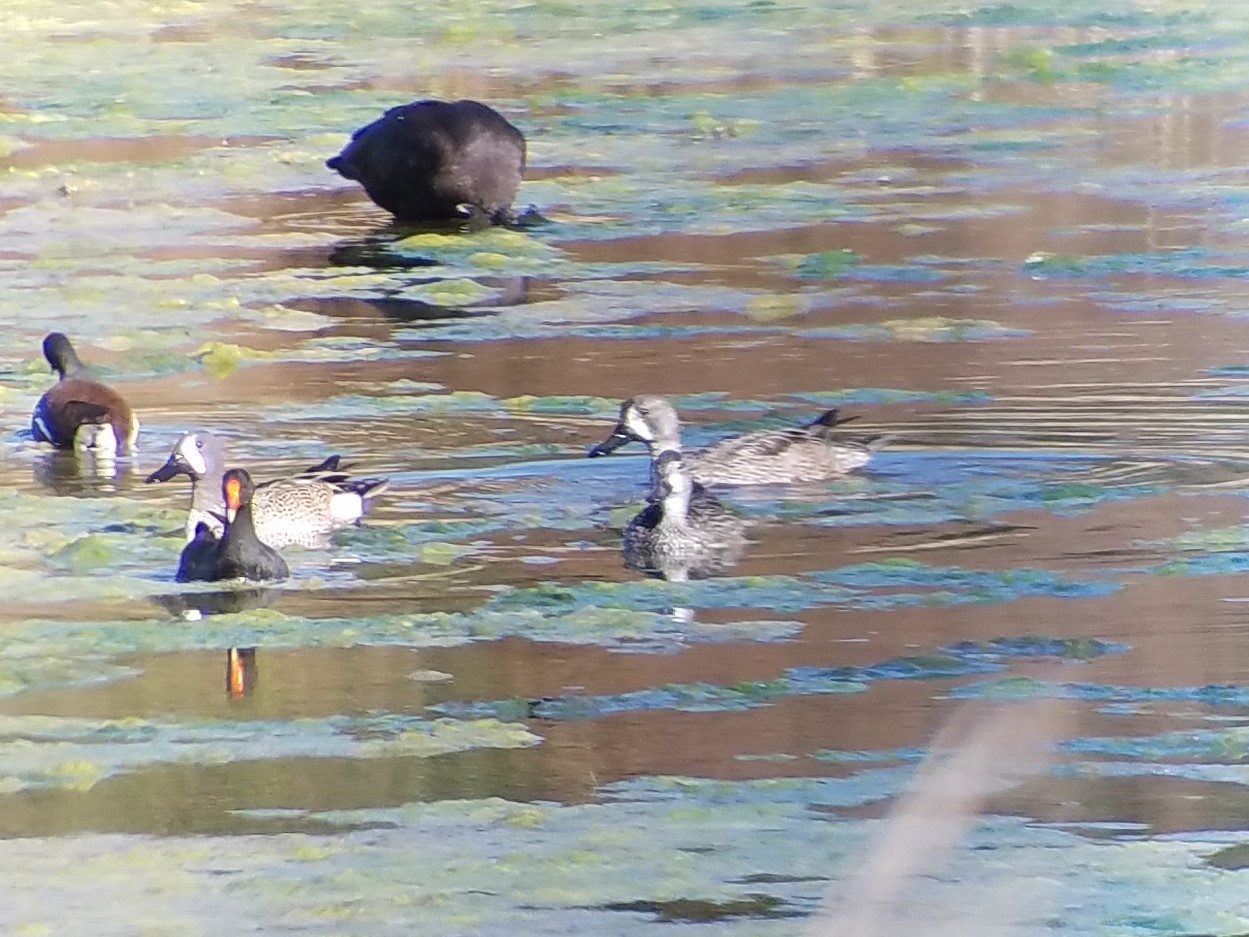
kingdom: Animalia
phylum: Chordata
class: Aves
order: Anseriformes
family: Anatidae
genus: Spatula
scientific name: Spatula discors
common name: Blue-winged teal
